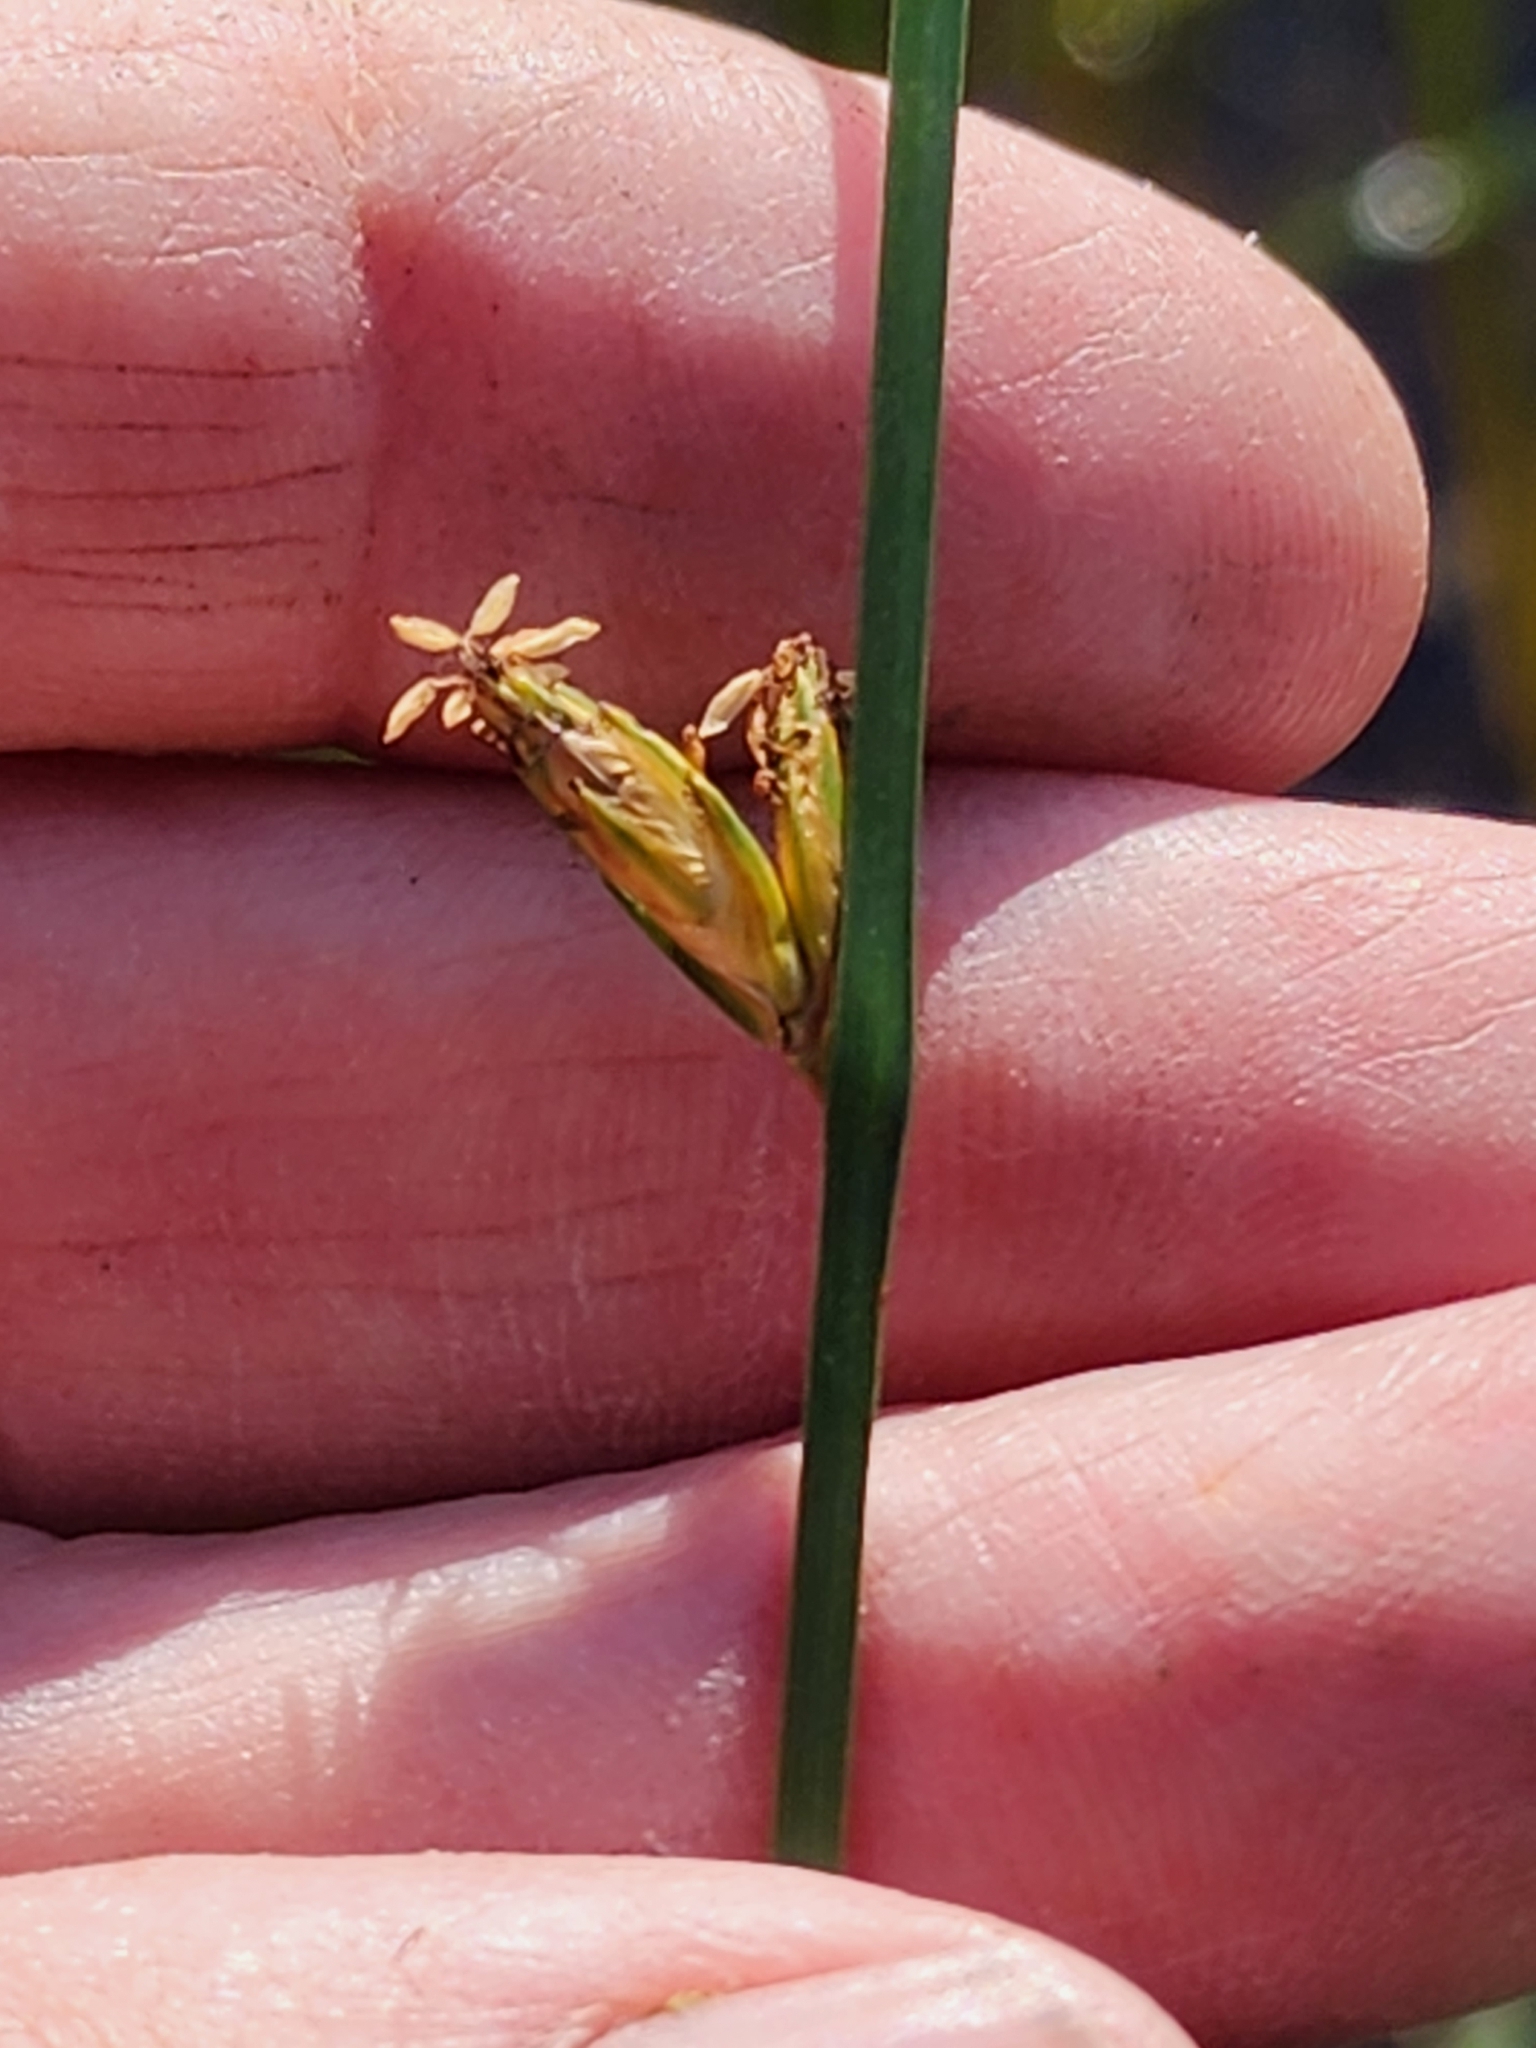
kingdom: Plantae
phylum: Tracheophyta
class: Liliopsida
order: Poales
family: Cyperaceae
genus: Schoenoplectus
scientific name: Schoenoplectus torreyi
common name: Torrey's bulrush
